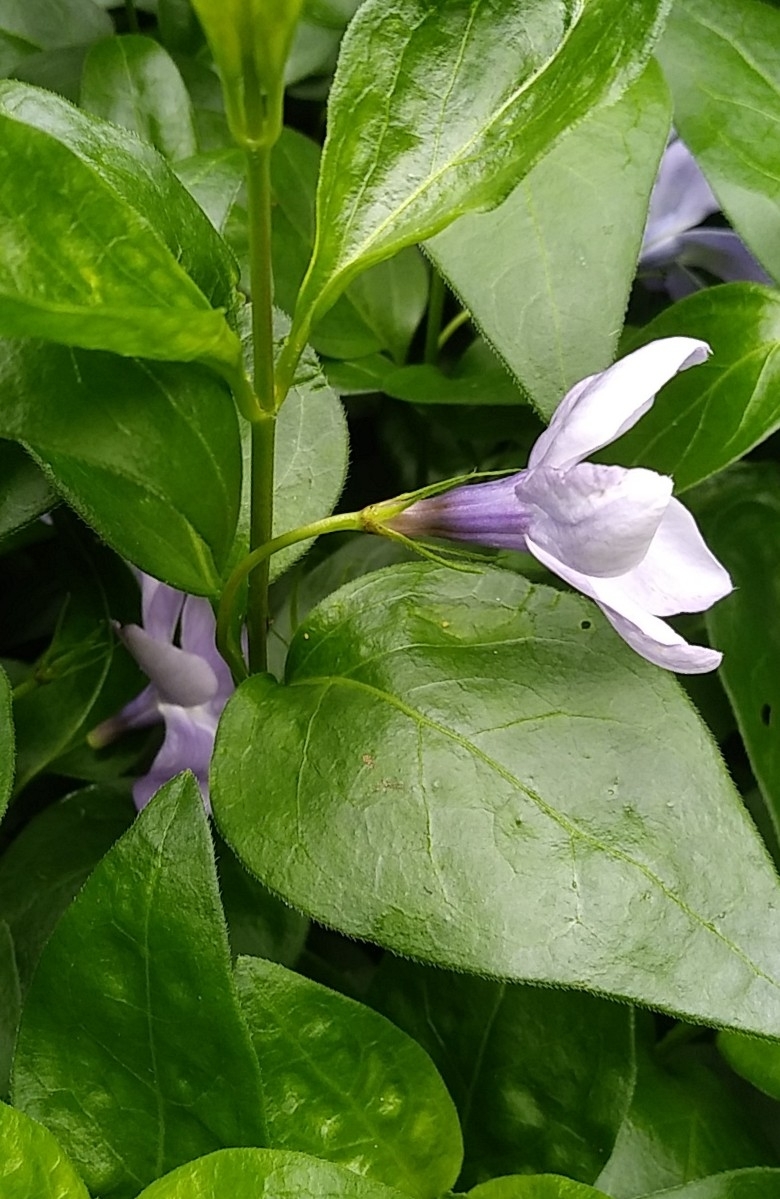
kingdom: Plantae
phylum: Tracheophyta
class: Magnoliopsida
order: Gentianales
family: Apocynaceae
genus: Vinca
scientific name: Vinca major
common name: Greater periwinkle
